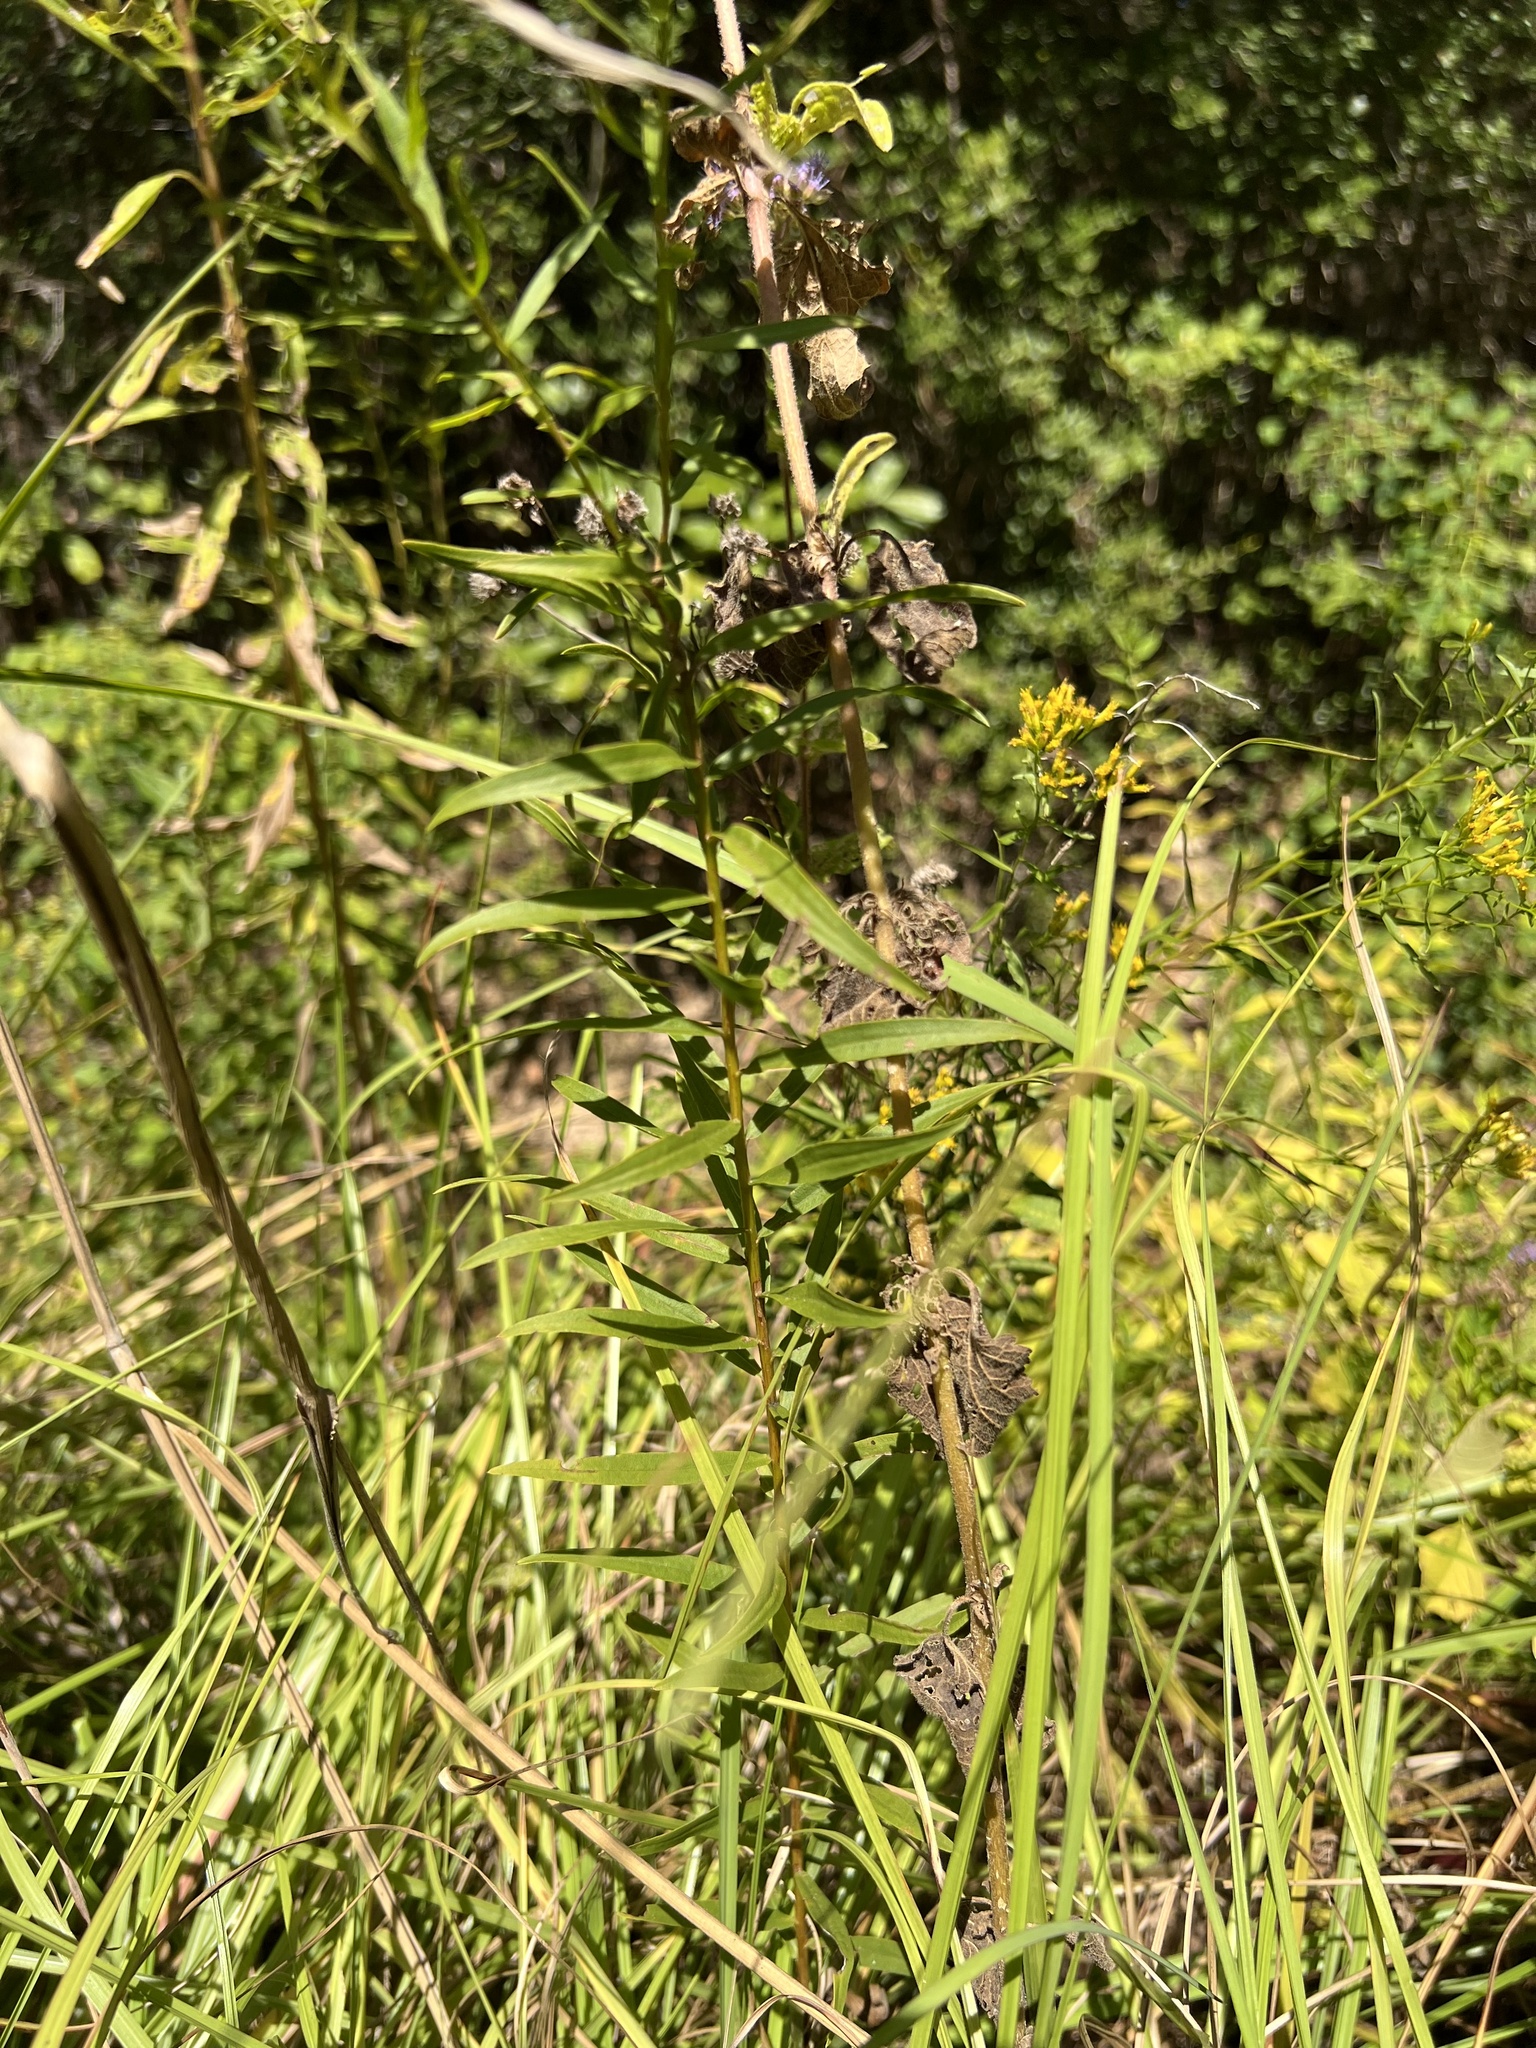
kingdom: Plantae
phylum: Tracheophyta
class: Magnoliopsida
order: Asterales
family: Asteraceae
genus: Euthamia
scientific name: Euthamia leptocephala
